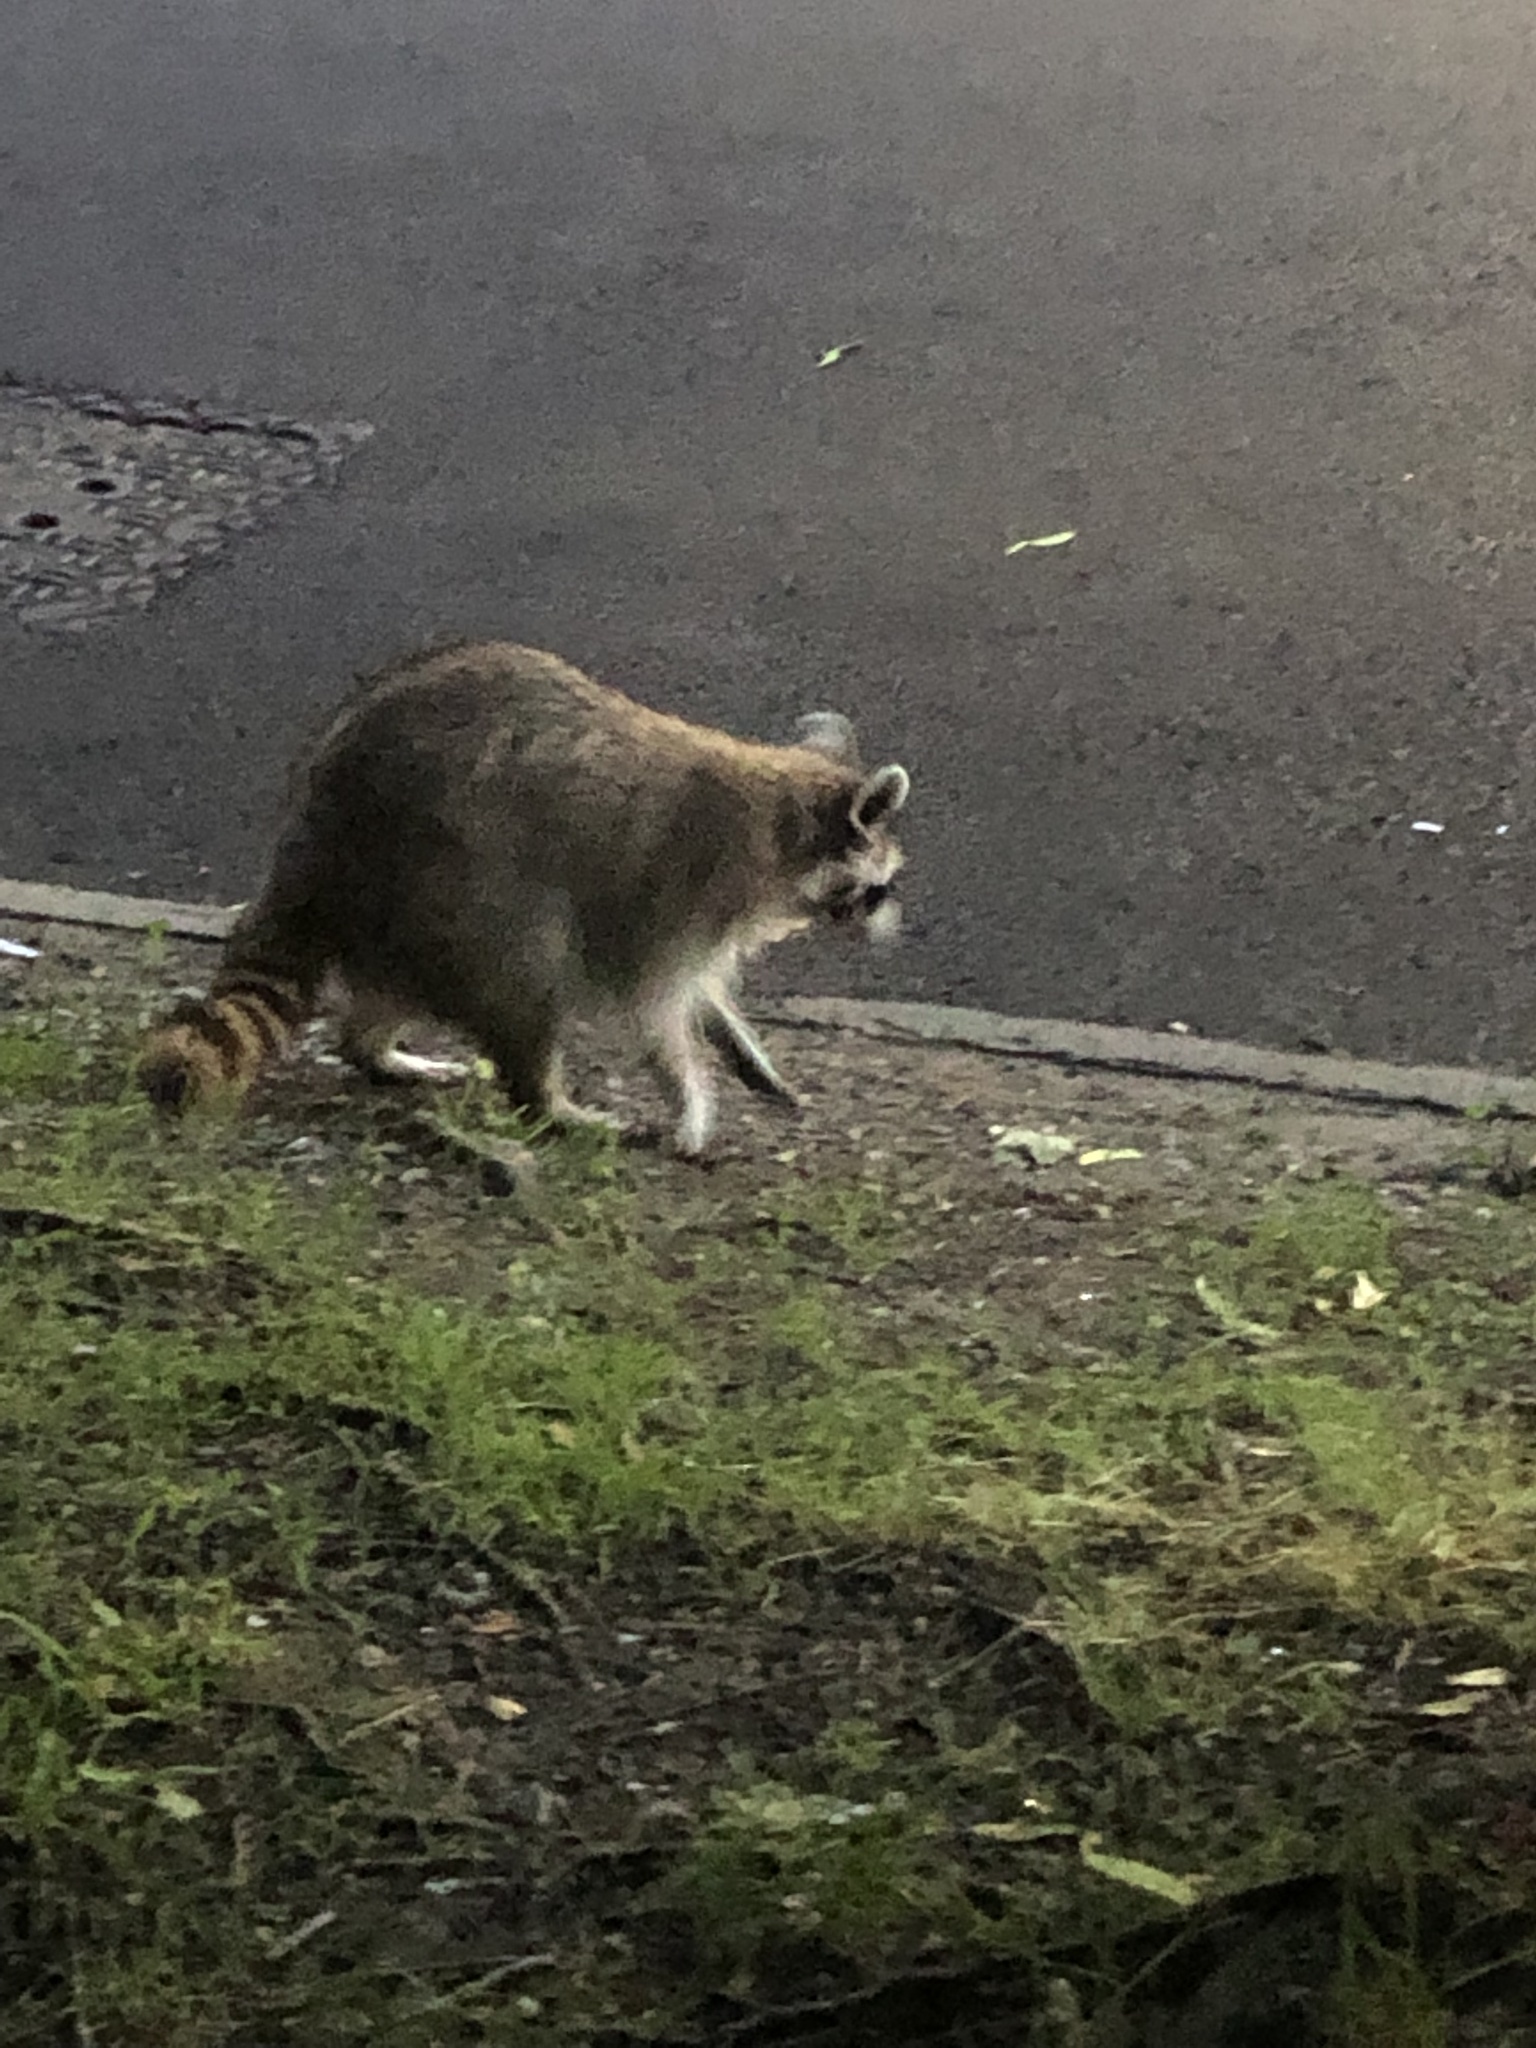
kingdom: Animalia
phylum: Chordata
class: Mammalia
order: Carnivora
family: Procyonidae
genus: Procyon
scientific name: Procyon lotor
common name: Raccoon
